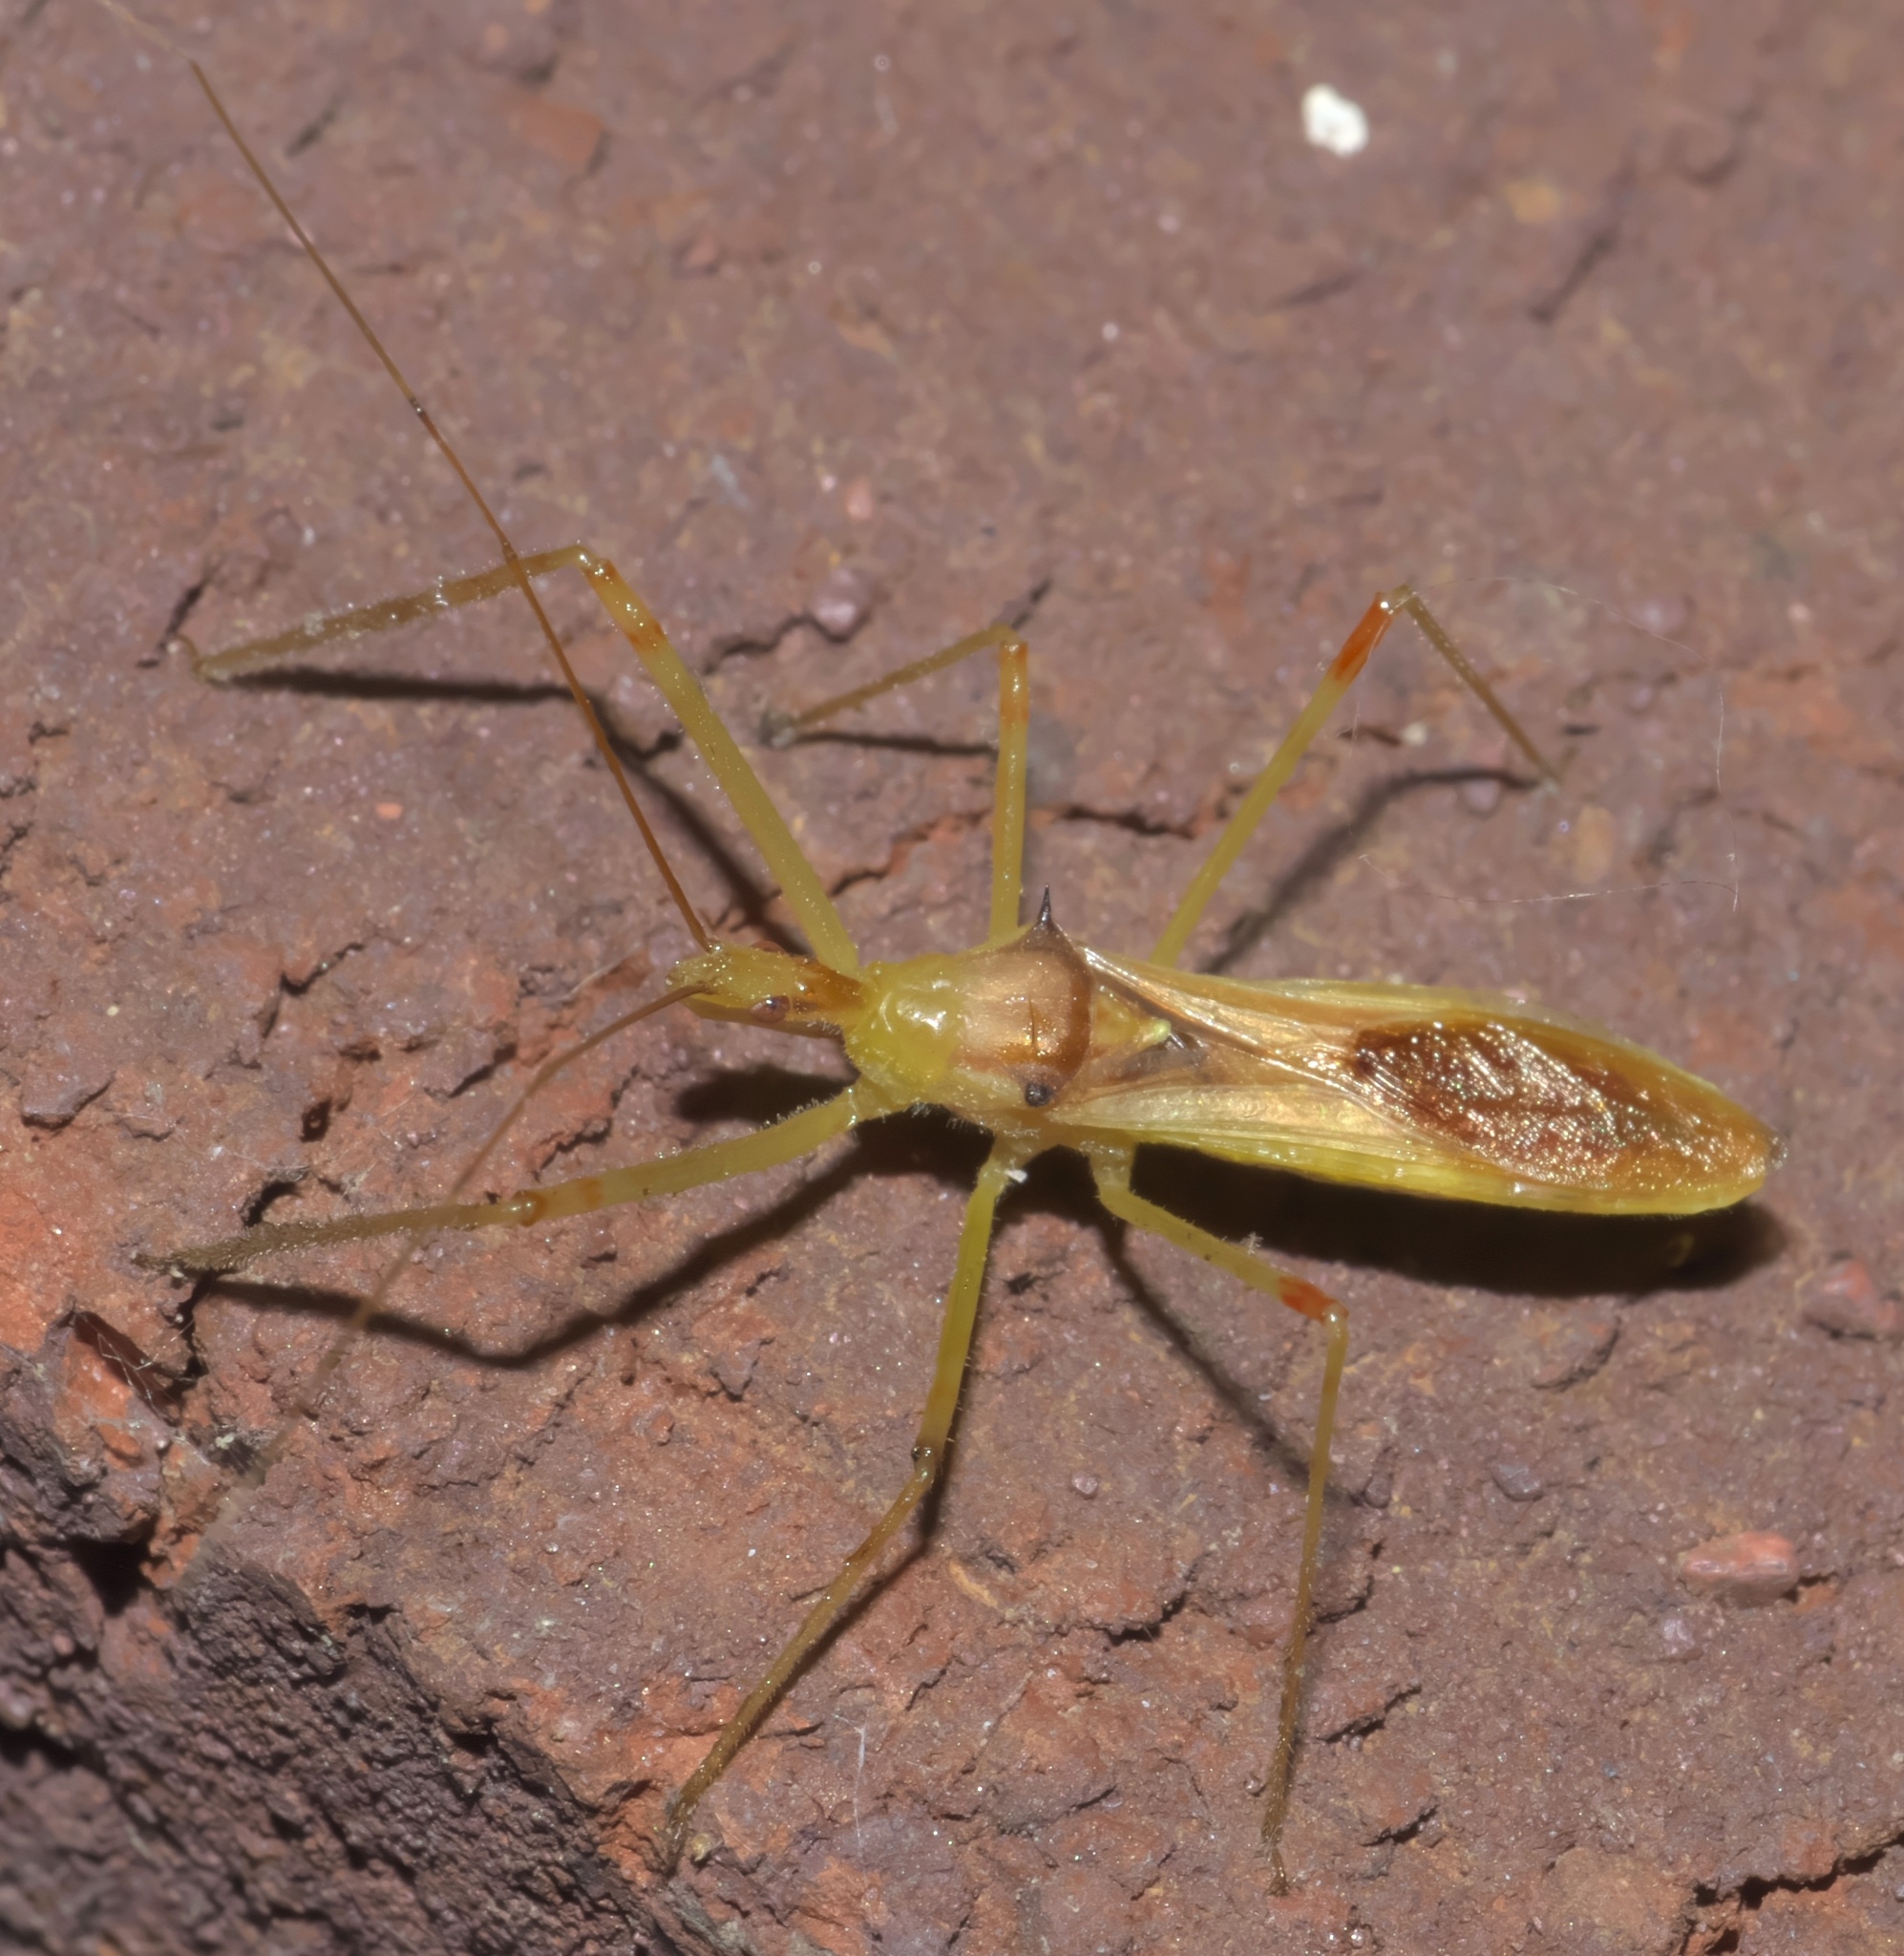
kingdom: Animalia
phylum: Arthropoda
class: Insecta
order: Hemiptera
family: Reduviidae
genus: Zelus
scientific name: Zelus luridus
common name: Pale green assassin bug
